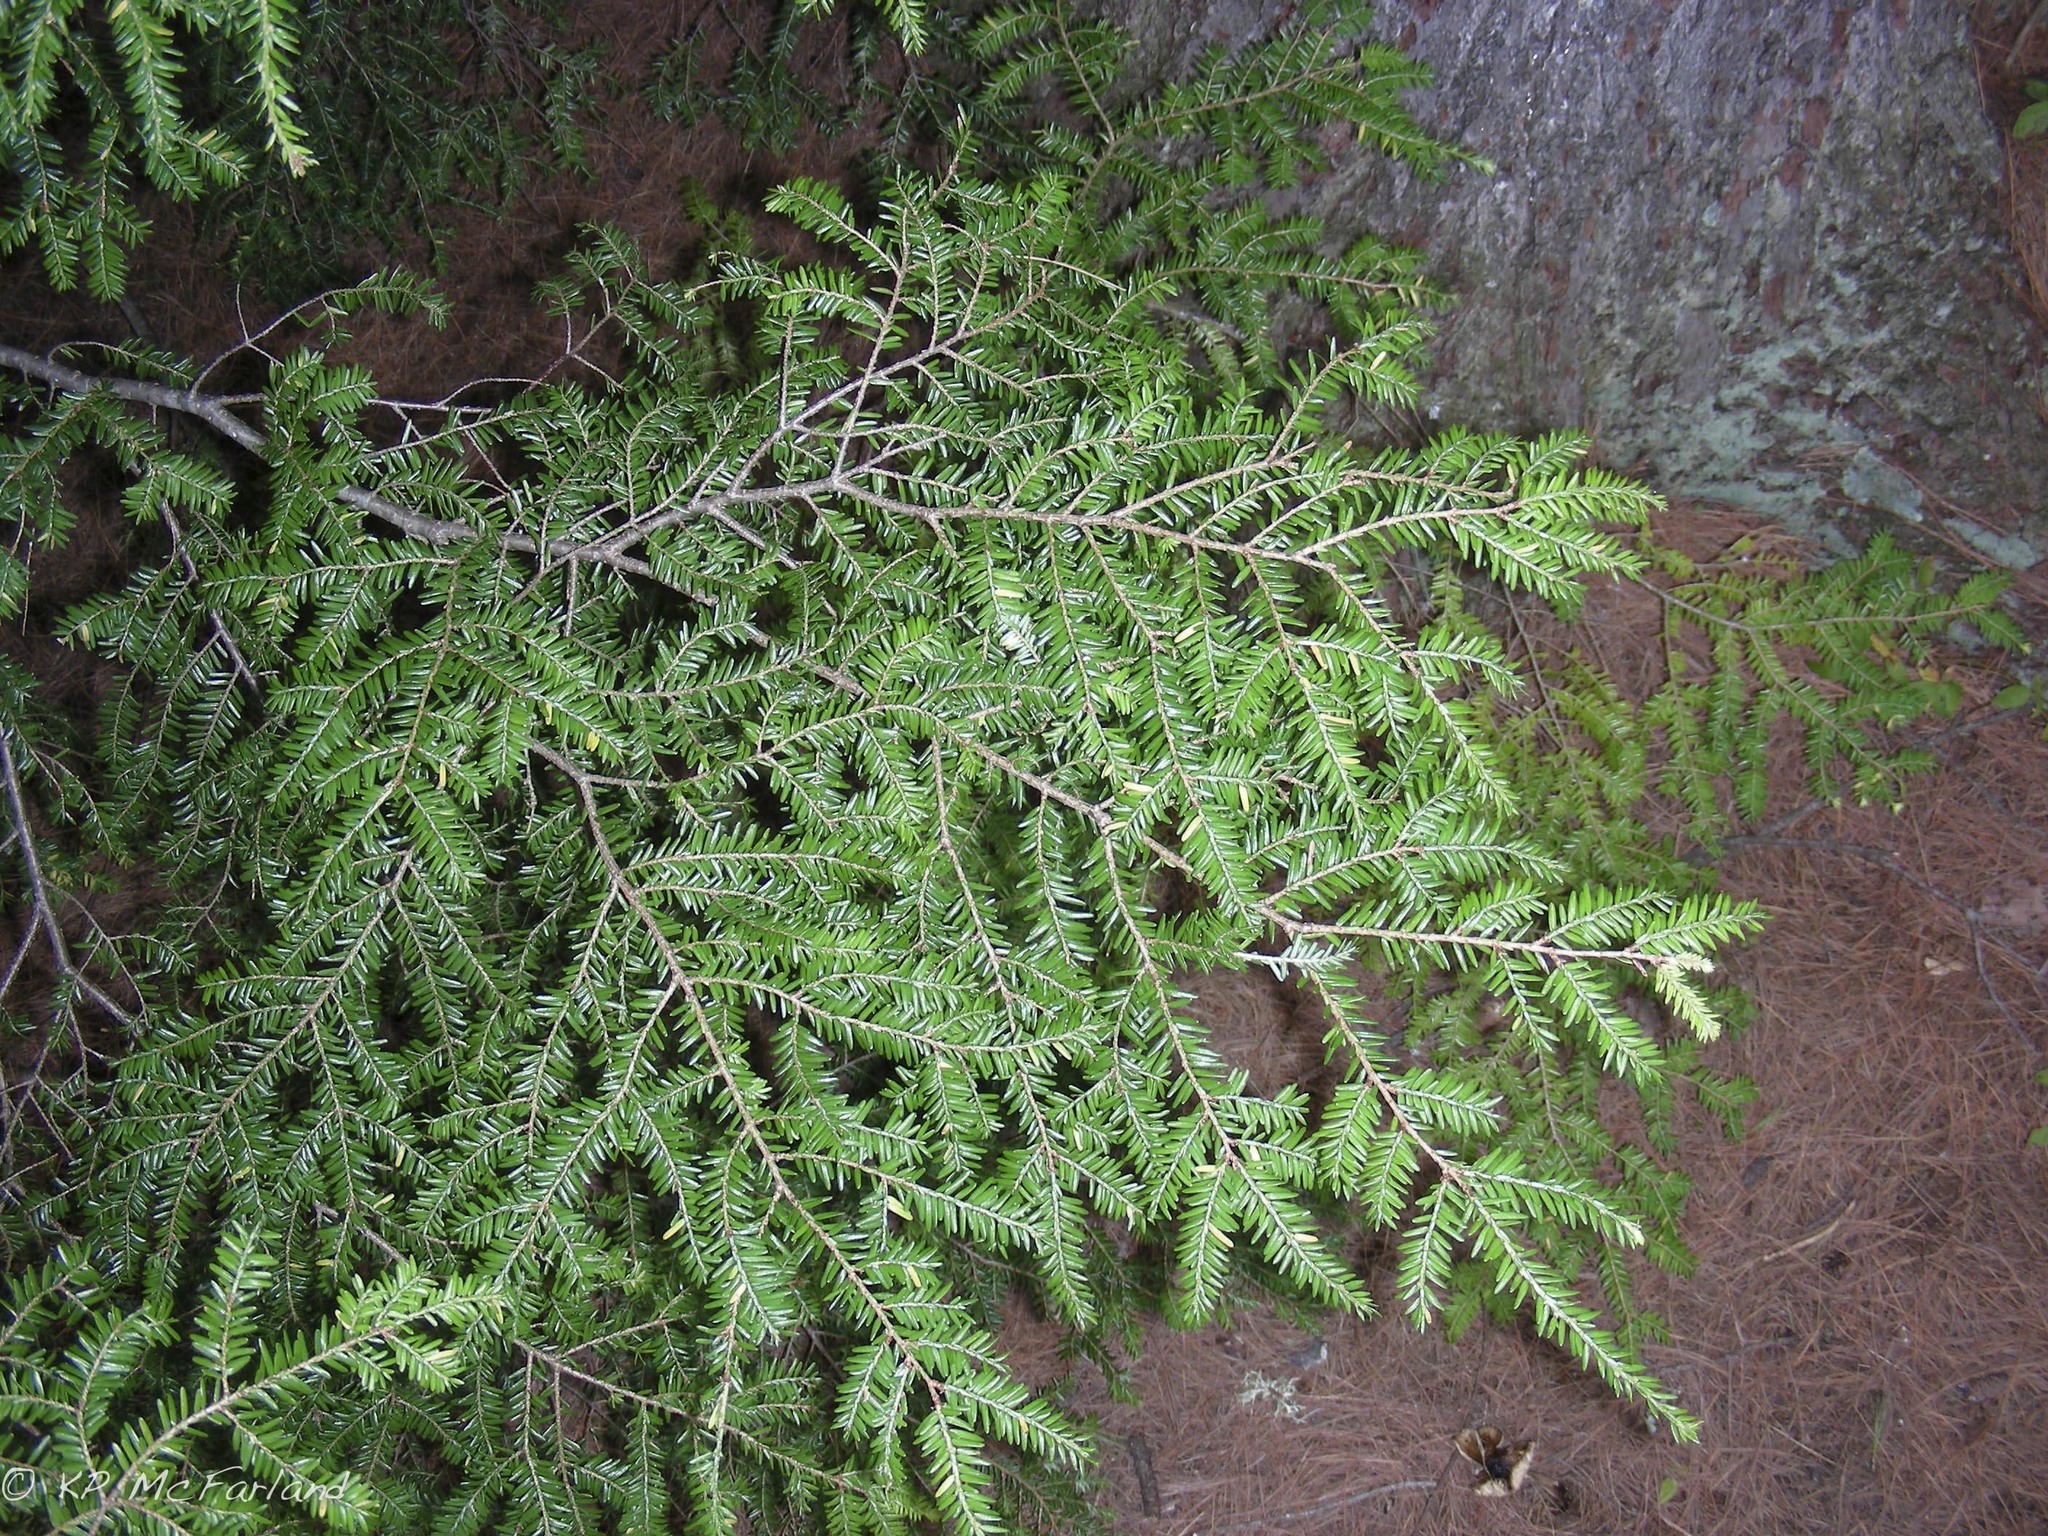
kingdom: Plantae
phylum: Tracheophyta
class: Pinopsida
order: Pinales
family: Pinaceae
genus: Tsuga
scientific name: Tsuga canadensis
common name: Eastern hemlock
